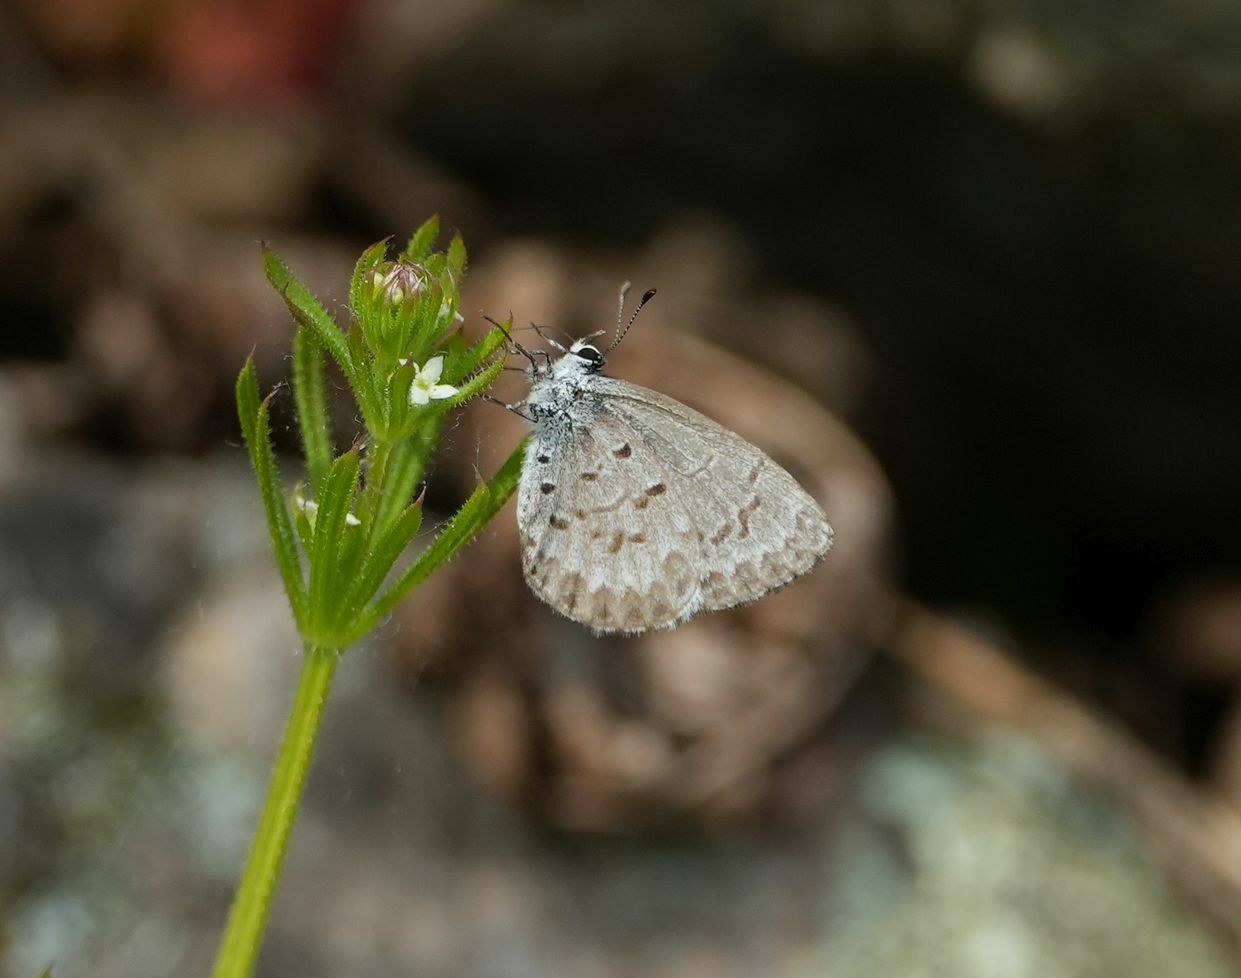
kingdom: Animalia
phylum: Arthropoda
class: Insecta
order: Lepidoptera
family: Lycaenidae
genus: Celastrina
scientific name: Celastrina lucia
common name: Lucia azure
